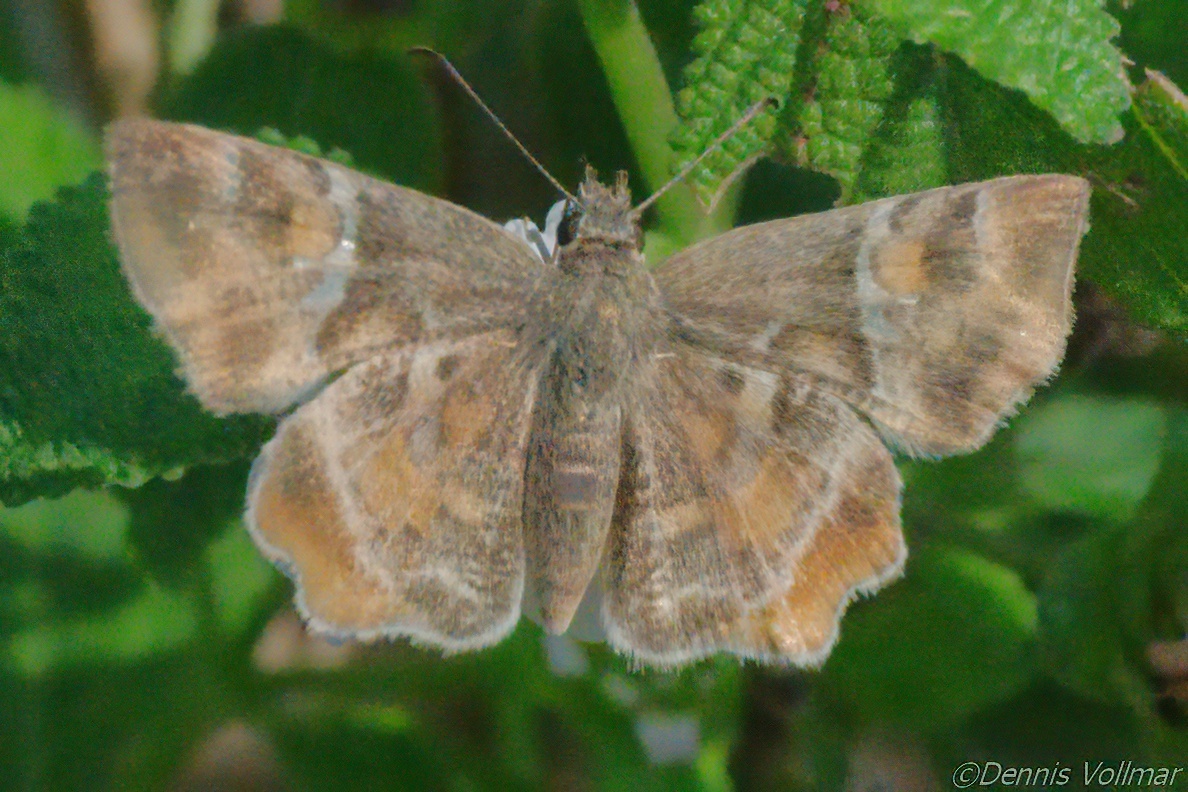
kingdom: Animalia
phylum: Arthropoda
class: Insecta
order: Lepidoptera
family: Hesperiidae
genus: Systasea
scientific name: Systasea pulverulenta
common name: Texas powdered skipper
